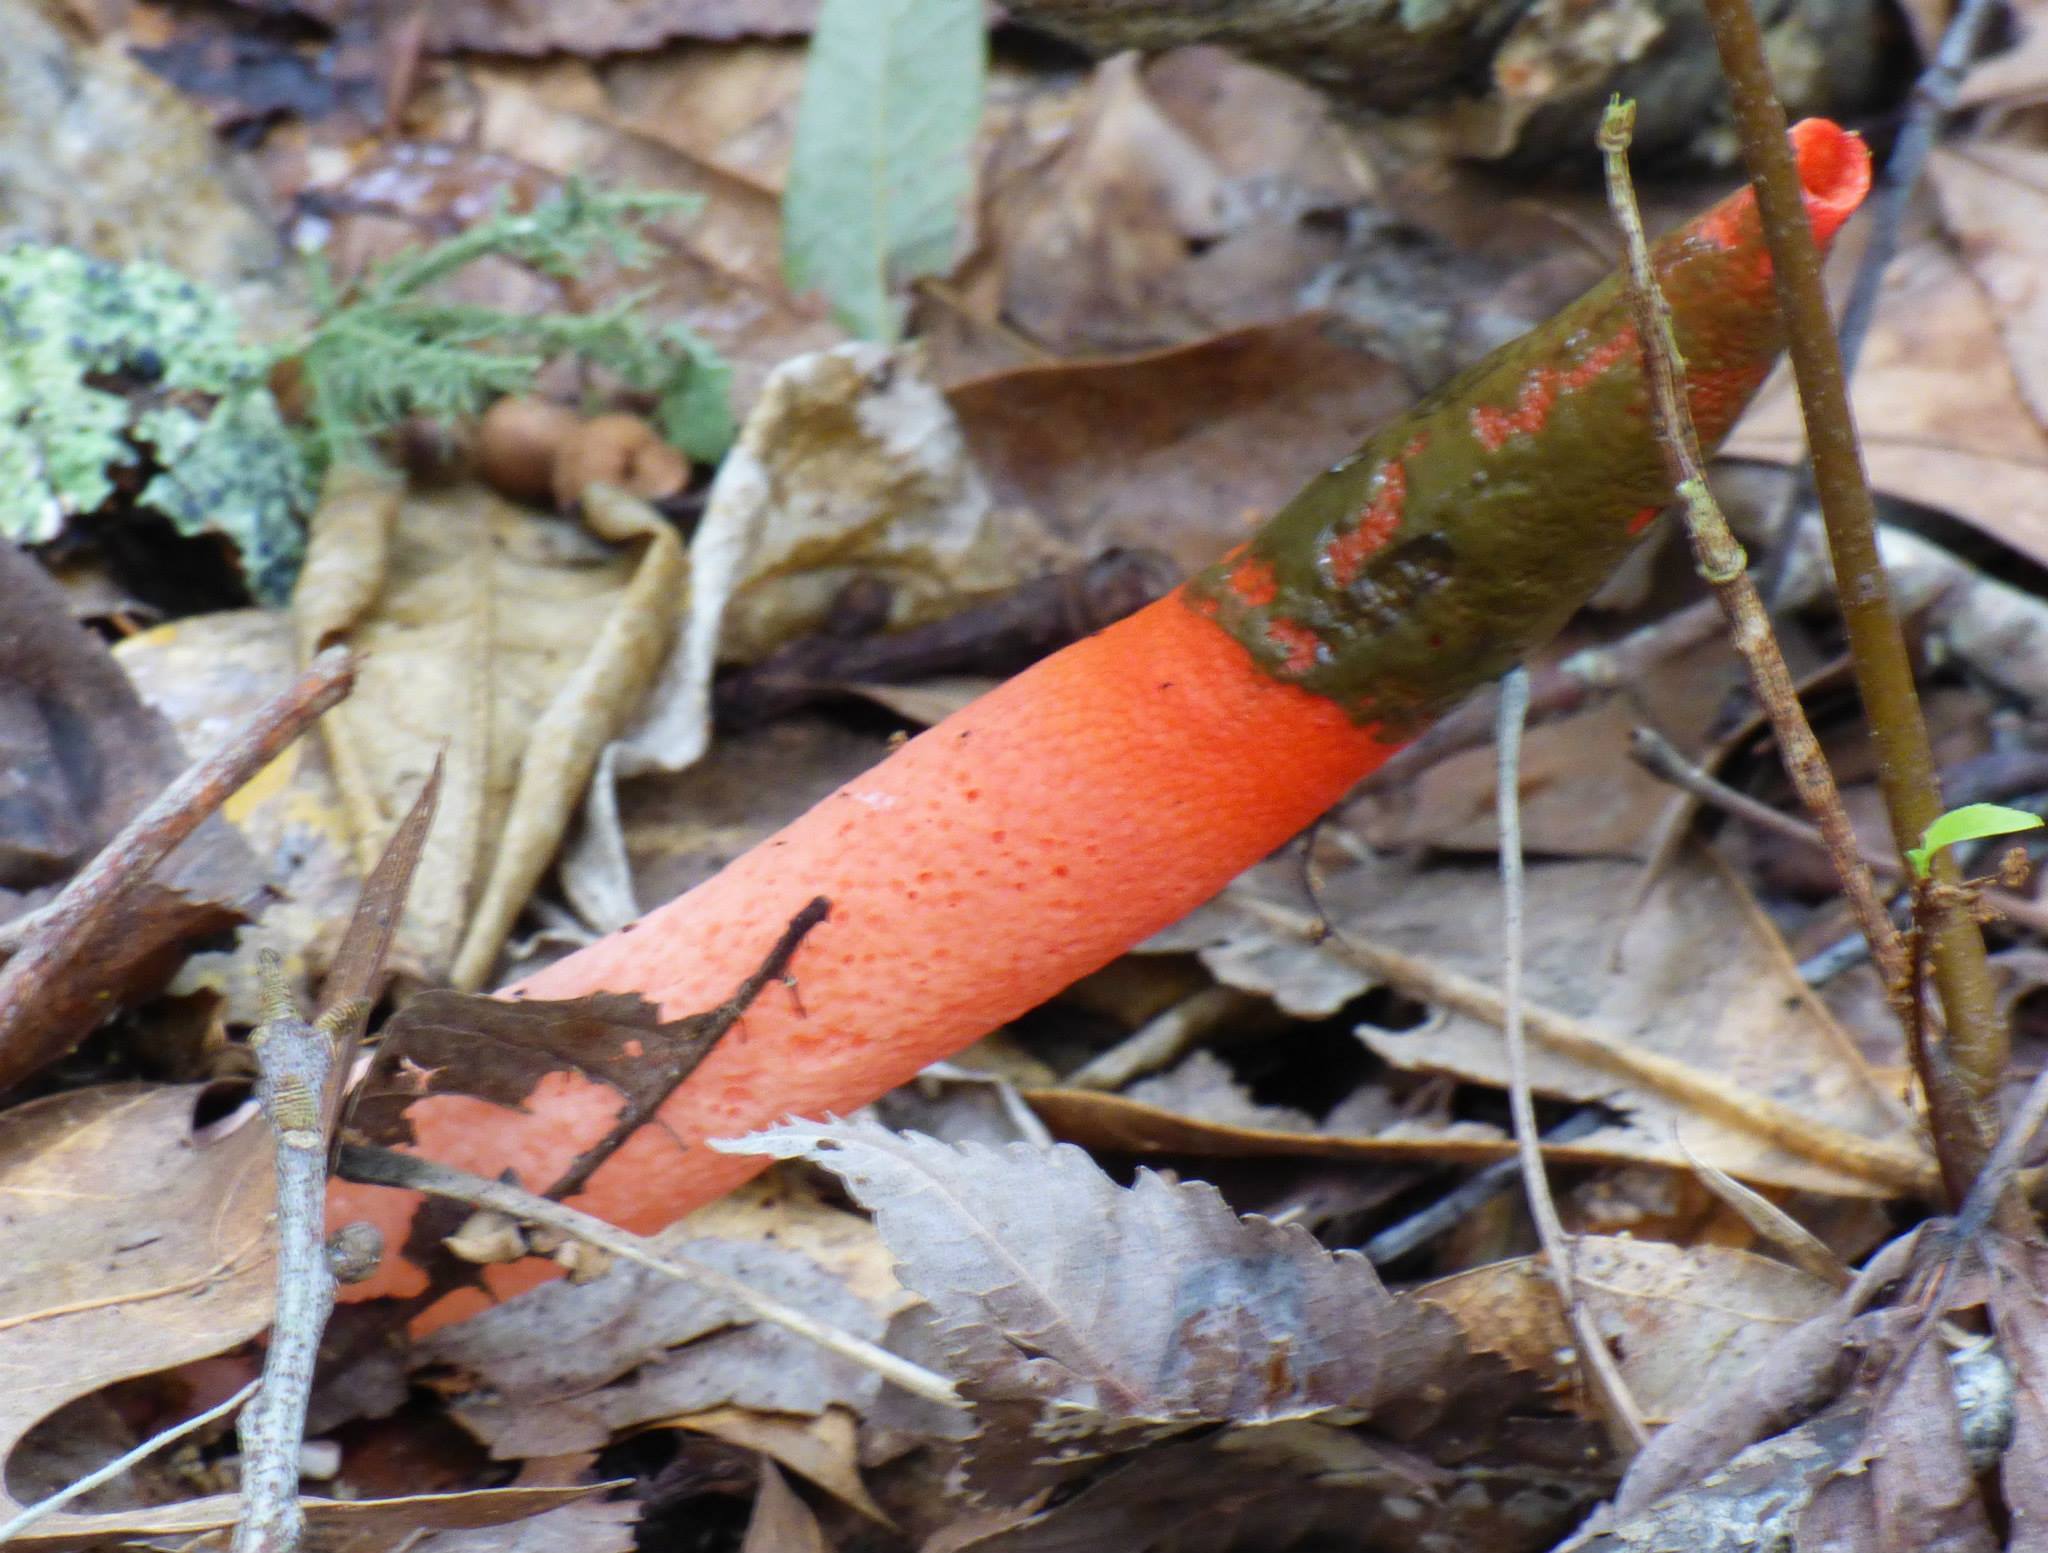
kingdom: Fungi
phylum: Basidiomycota
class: Agaricomycetes
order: Phallales
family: Phallaceae
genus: Mutinus
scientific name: Mutinus elegans
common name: Devil's dipstick
